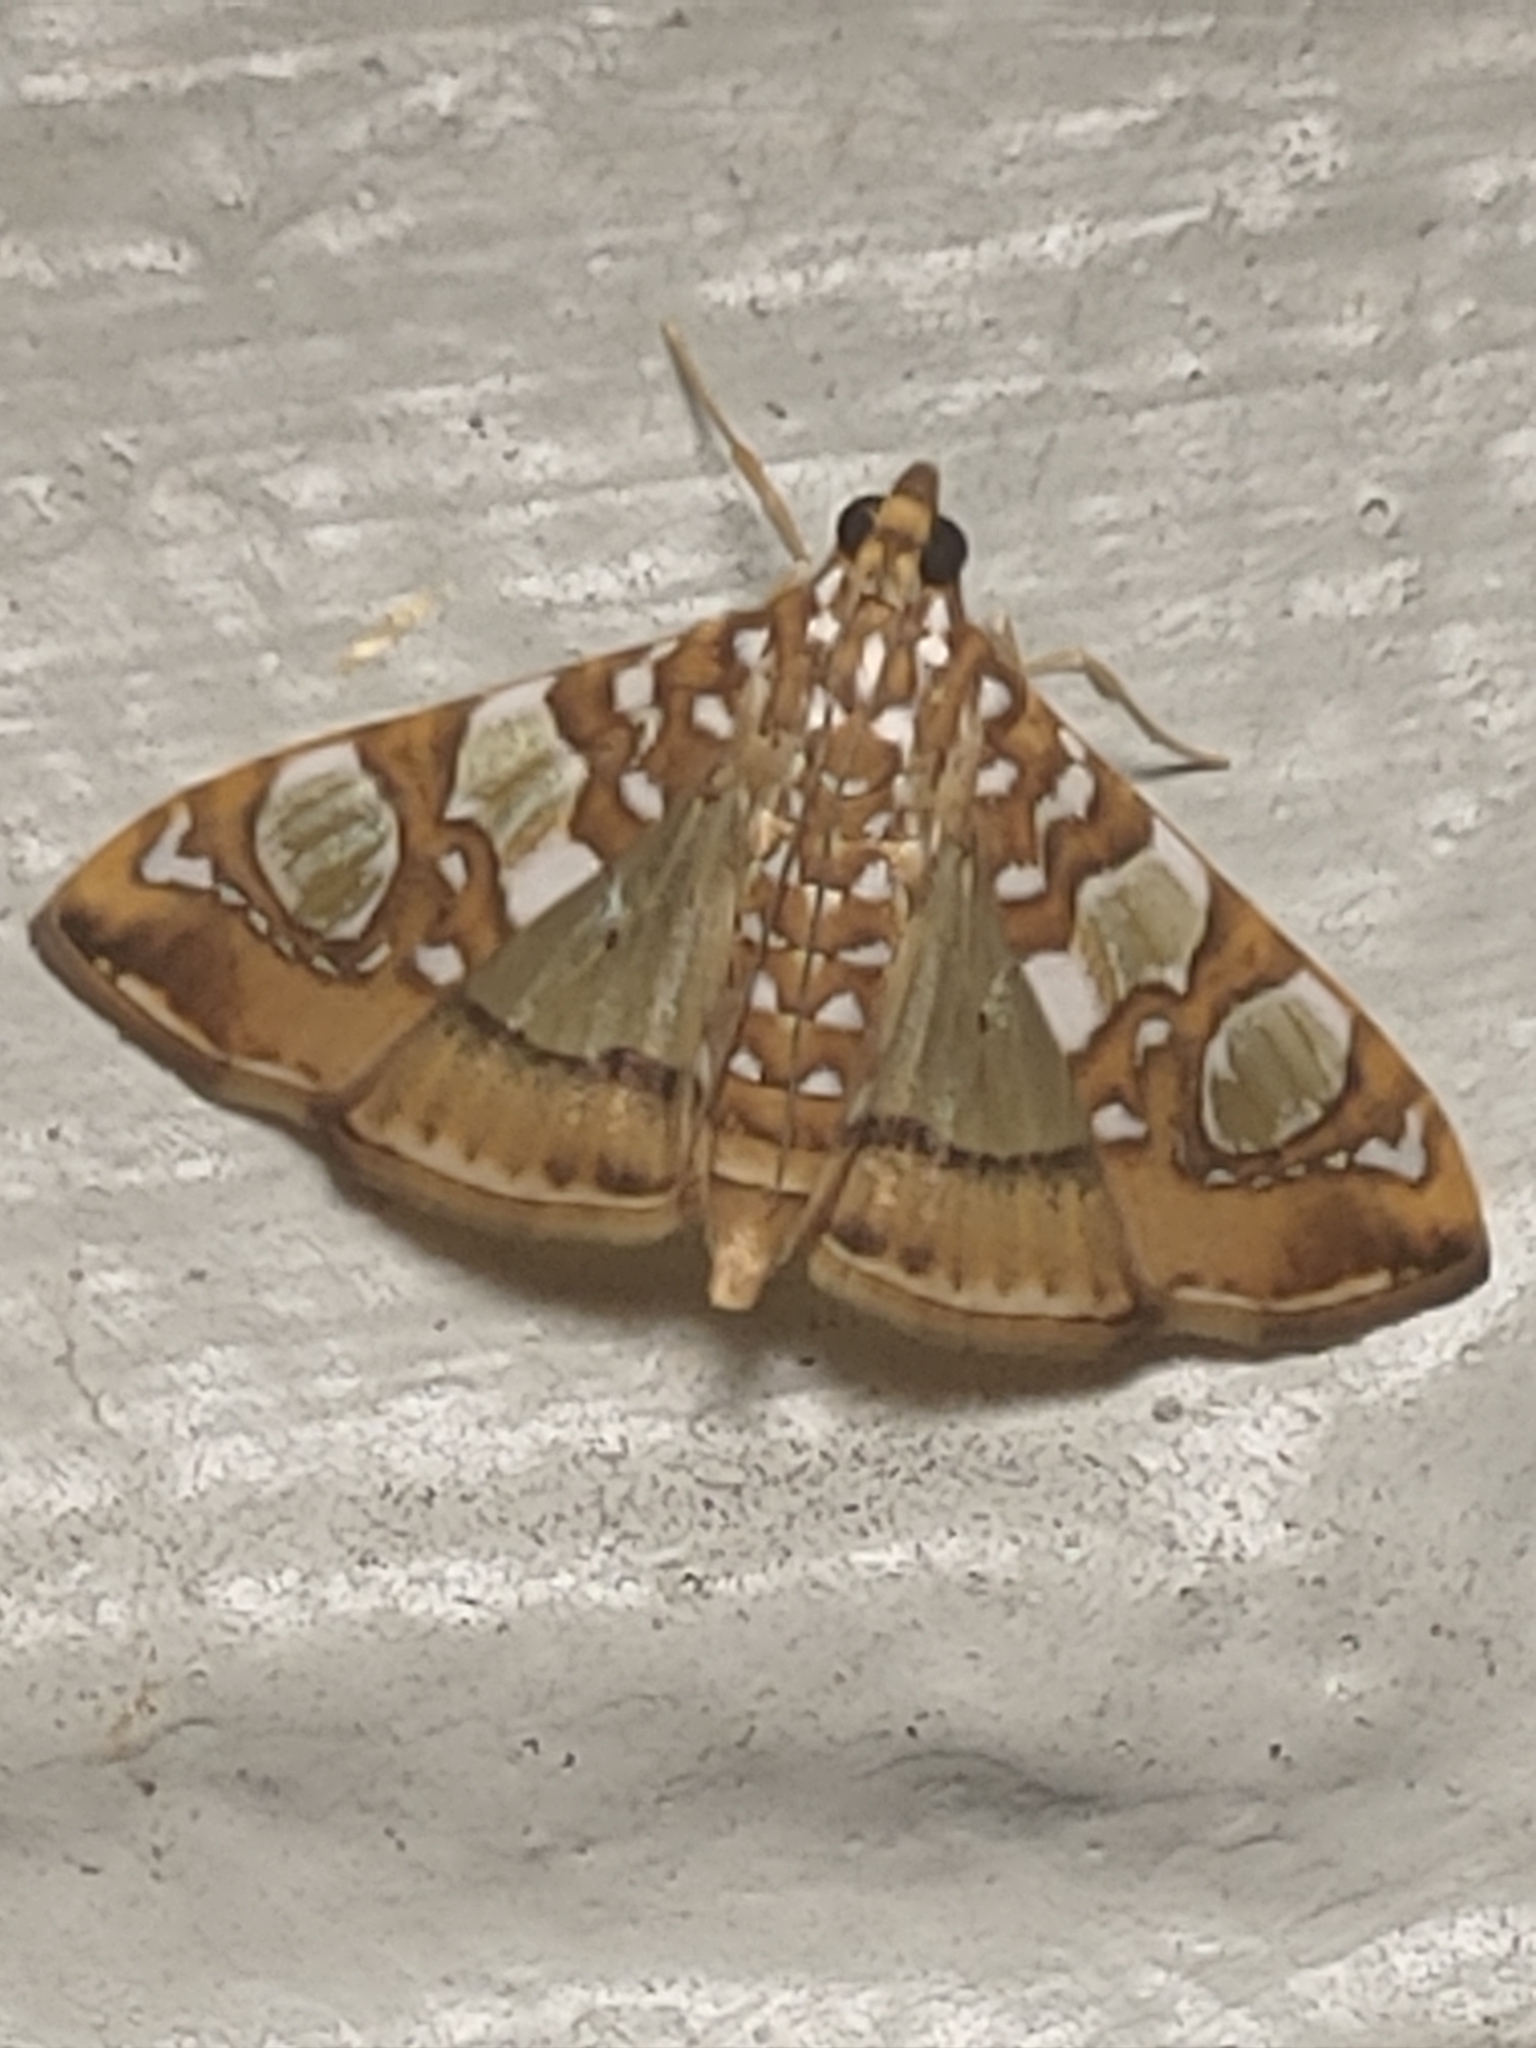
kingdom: Animalia
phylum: Arthropoda
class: Insecta
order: Lepidoptera
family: Crambidae
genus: Glyphodes
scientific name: Glyphodes sibillalis
